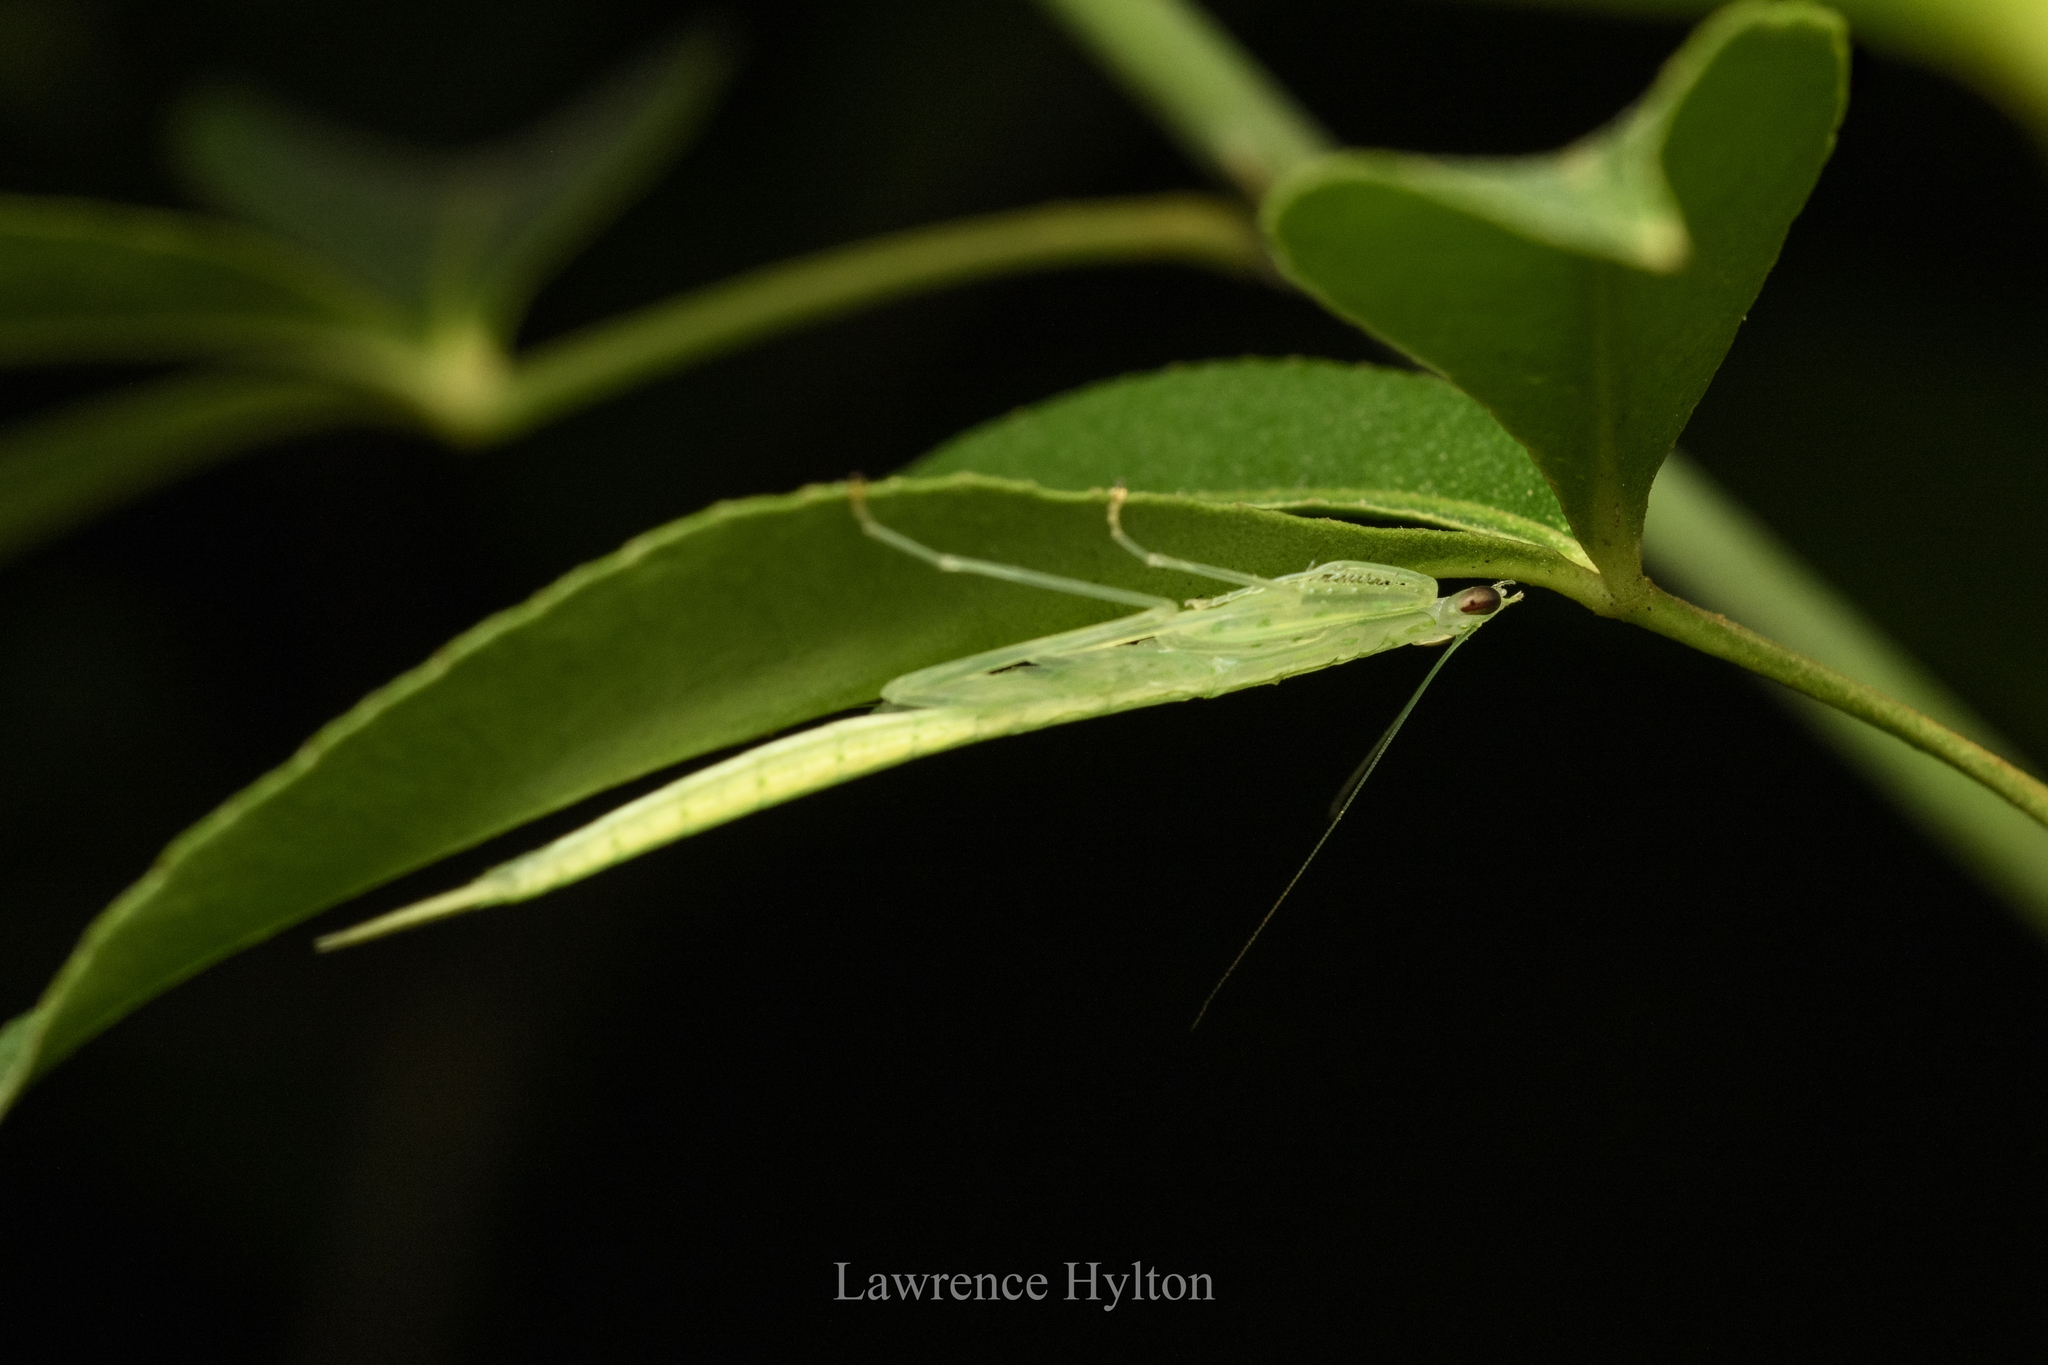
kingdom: Animalia
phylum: Arthropoda
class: Insecta
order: Mantodea
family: Nanomantidae
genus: Sinomantis
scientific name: Sinomantis denticulata
